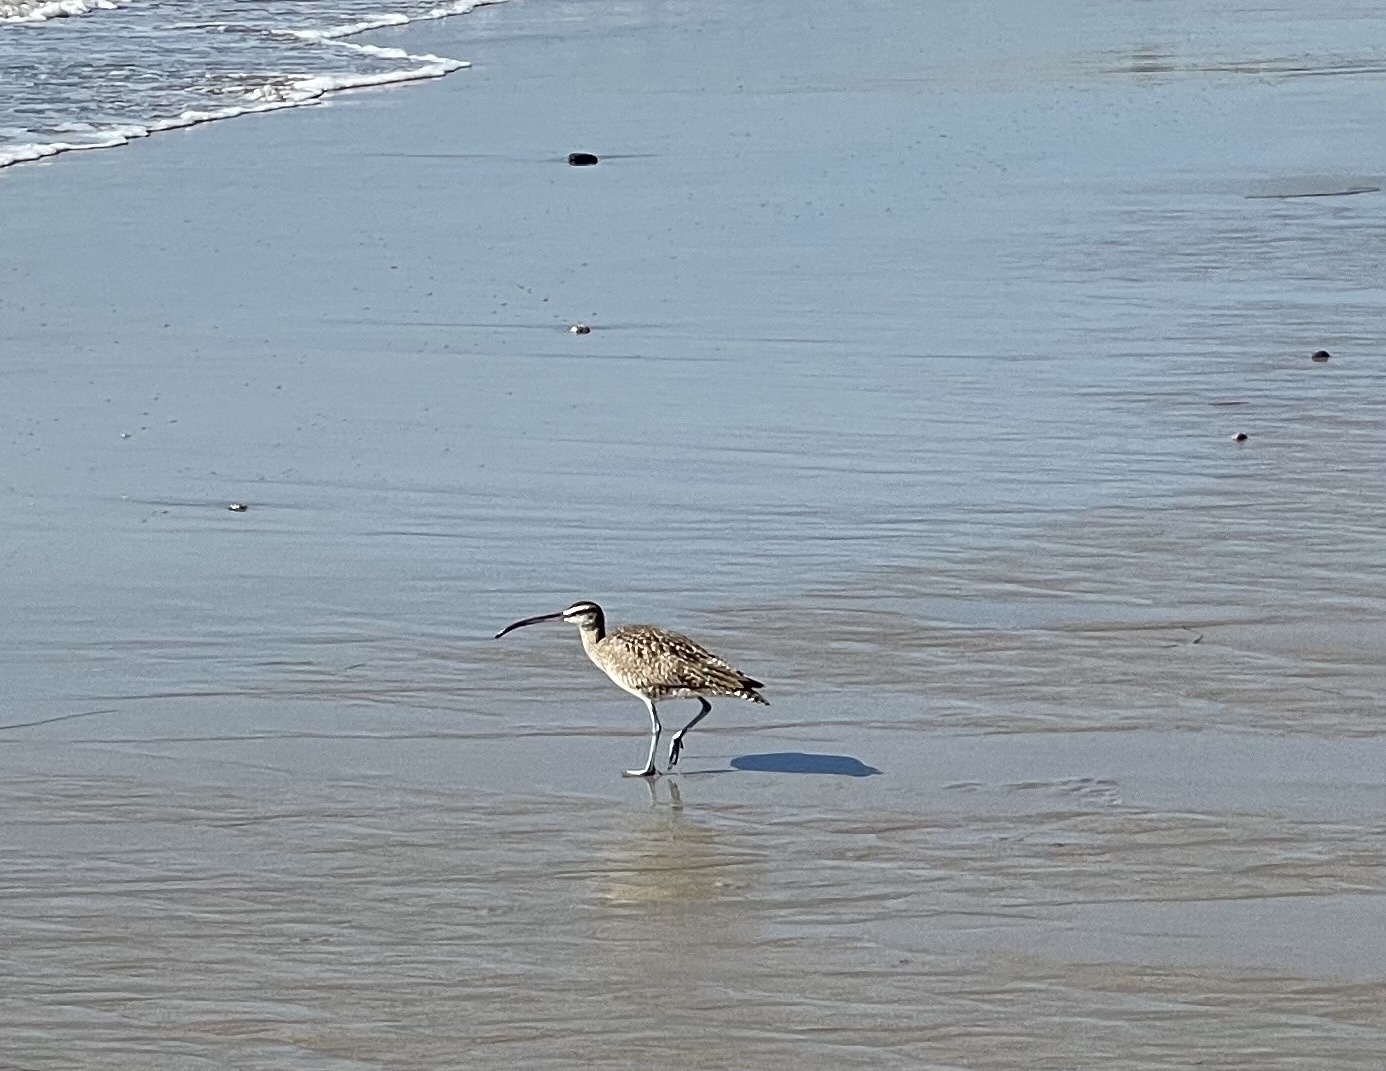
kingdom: Animalia
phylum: Chordata
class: Aves
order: Charadriiformes
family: Scolopacidae
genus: Numenius
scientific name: Numenius phaeopus
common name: Whimbrel
